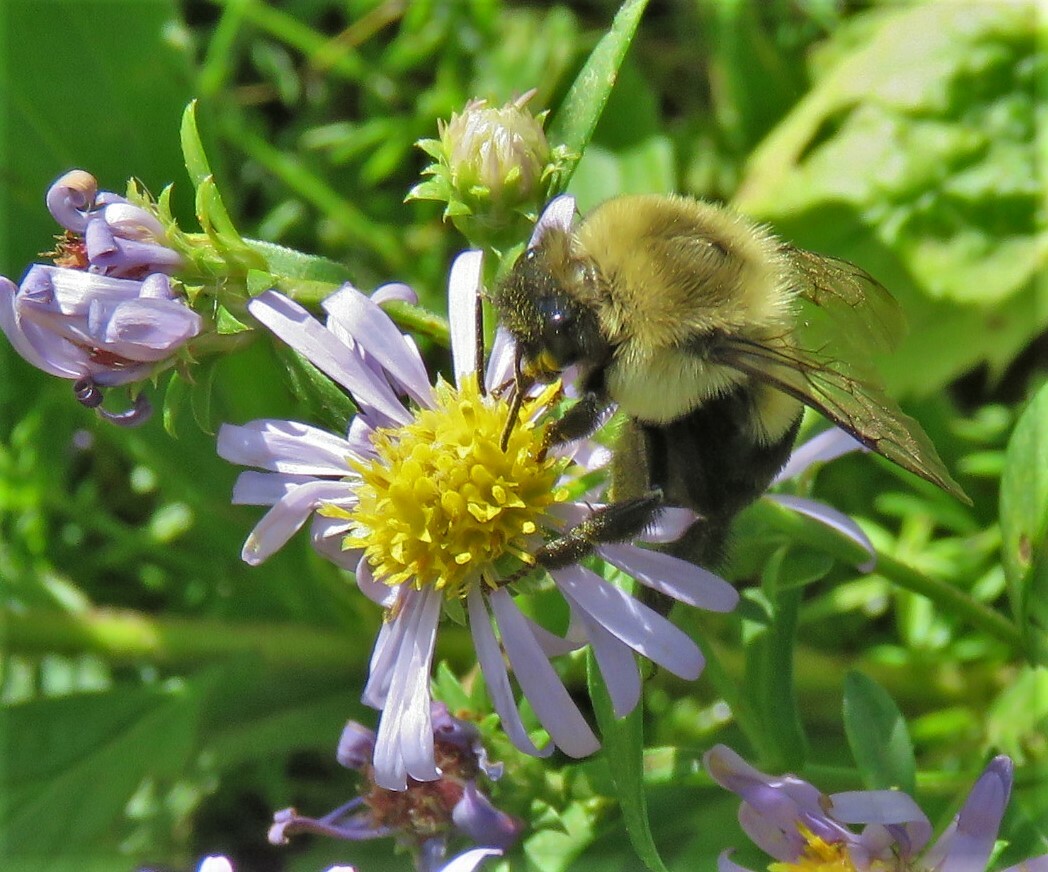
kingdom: Animalia
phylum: Arthropoda
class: Insecta
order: Hymenoptera
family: Apidae
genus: Bombus
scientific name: Bombus impatiens
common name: Common eastern bumble bee
